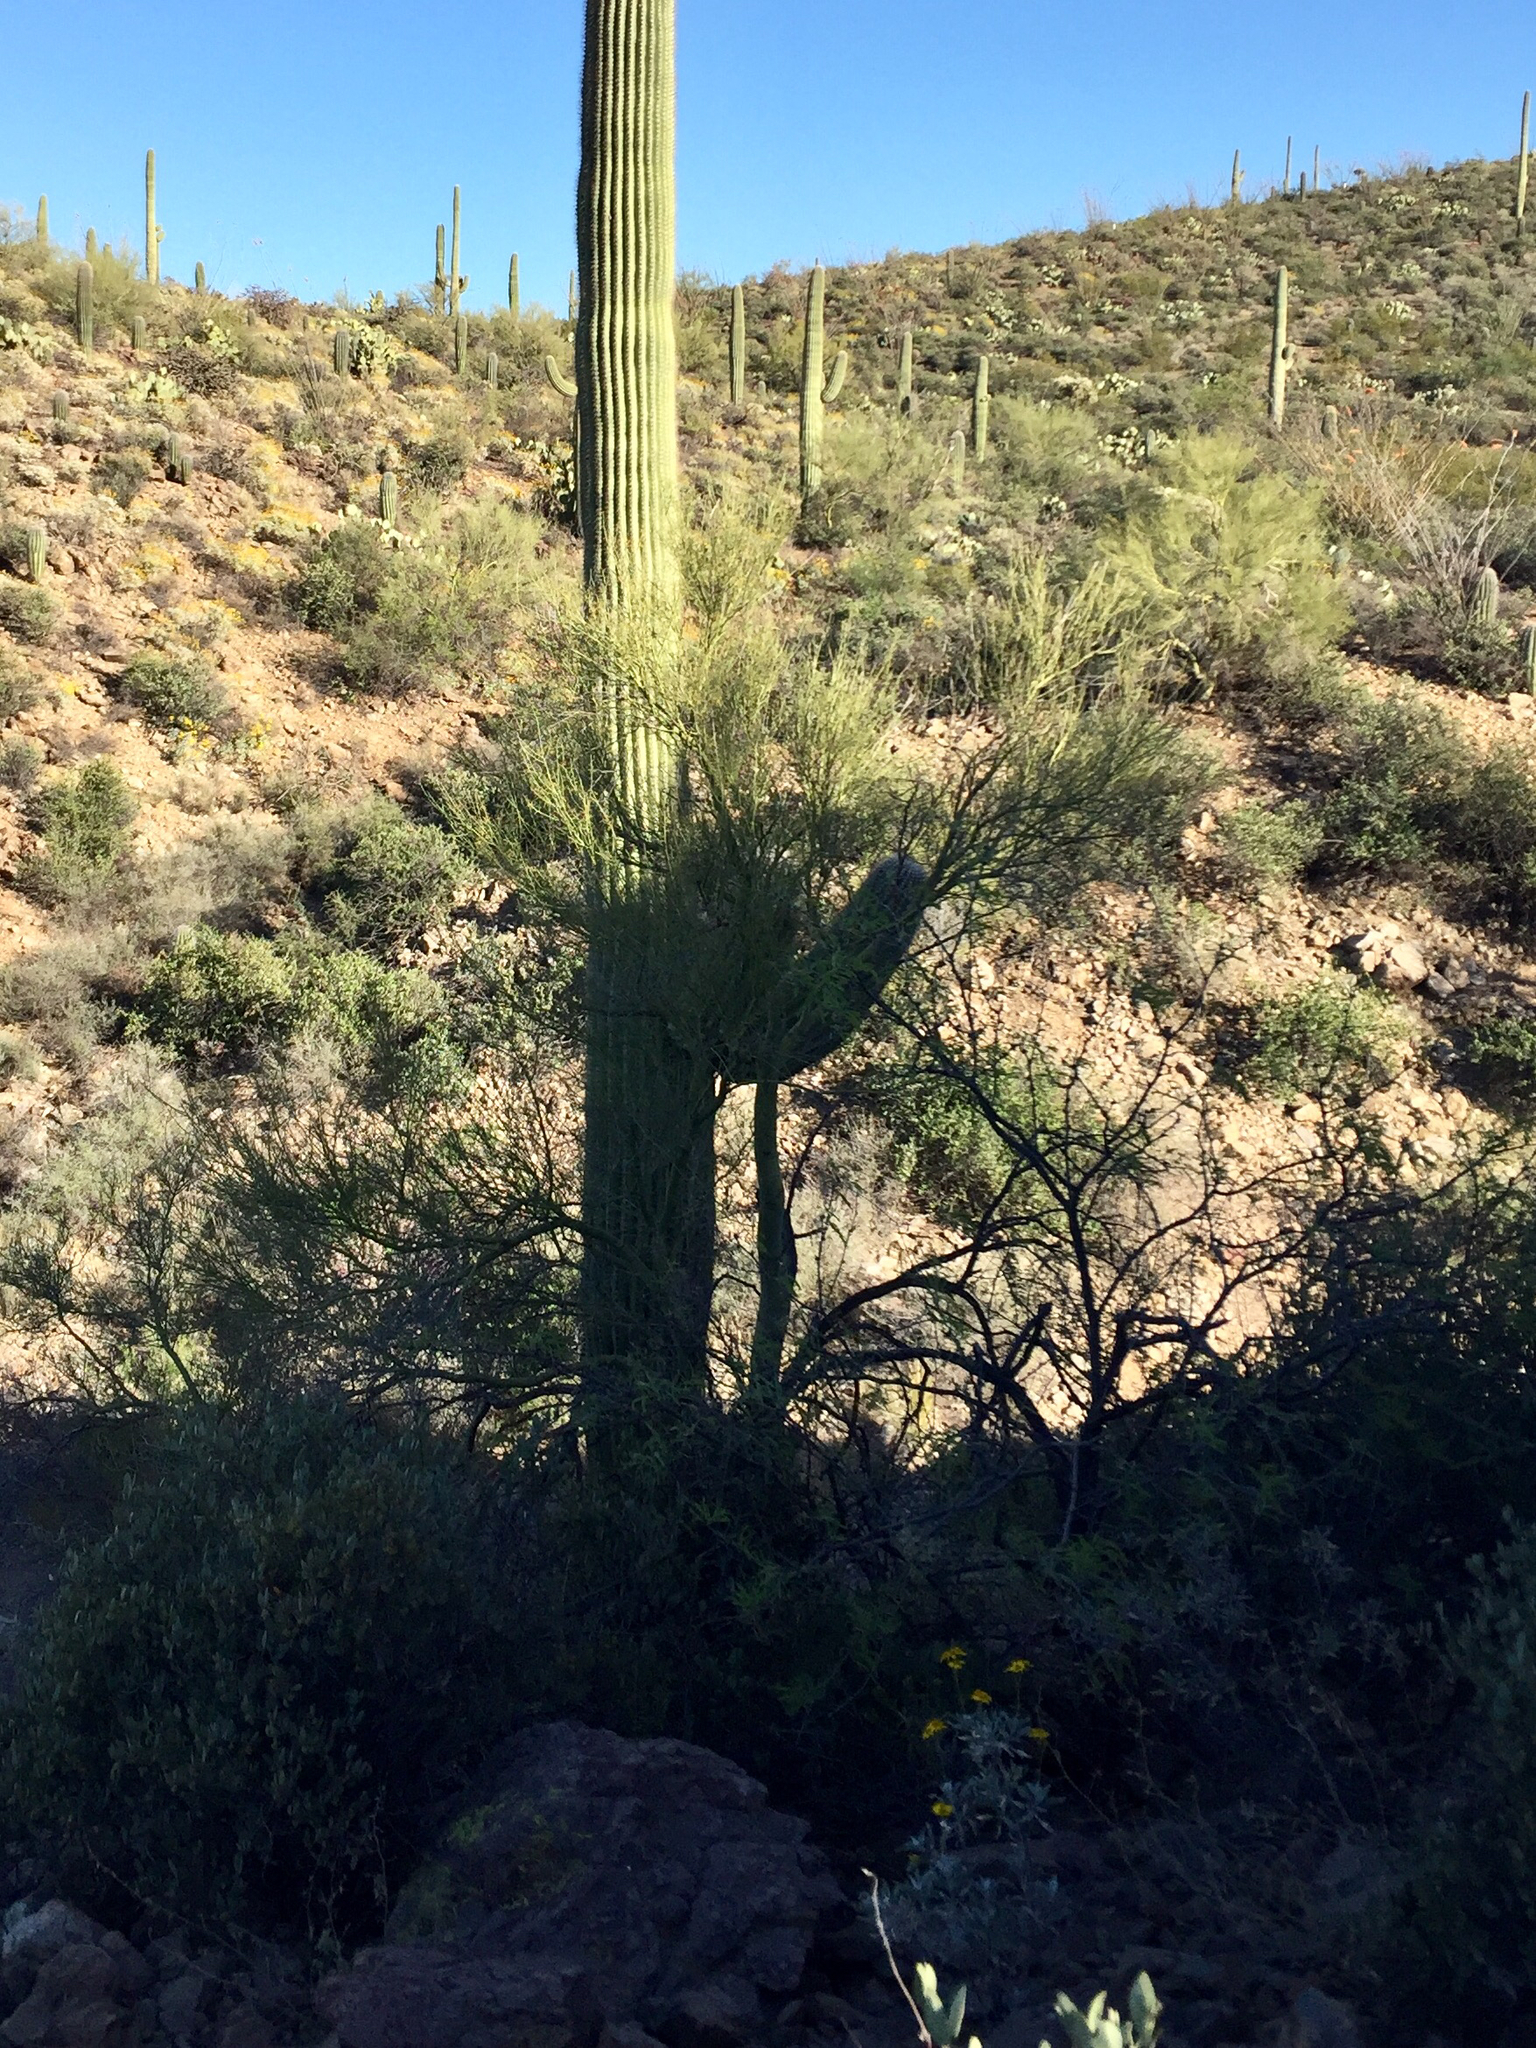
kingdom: Plantae
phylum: Tracheophyta
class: Magnoliopsida
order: Fabales
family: Fabaceae
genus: Parkinsonia
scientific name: Parkinsonia microphylla
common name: Yellow paloverde
